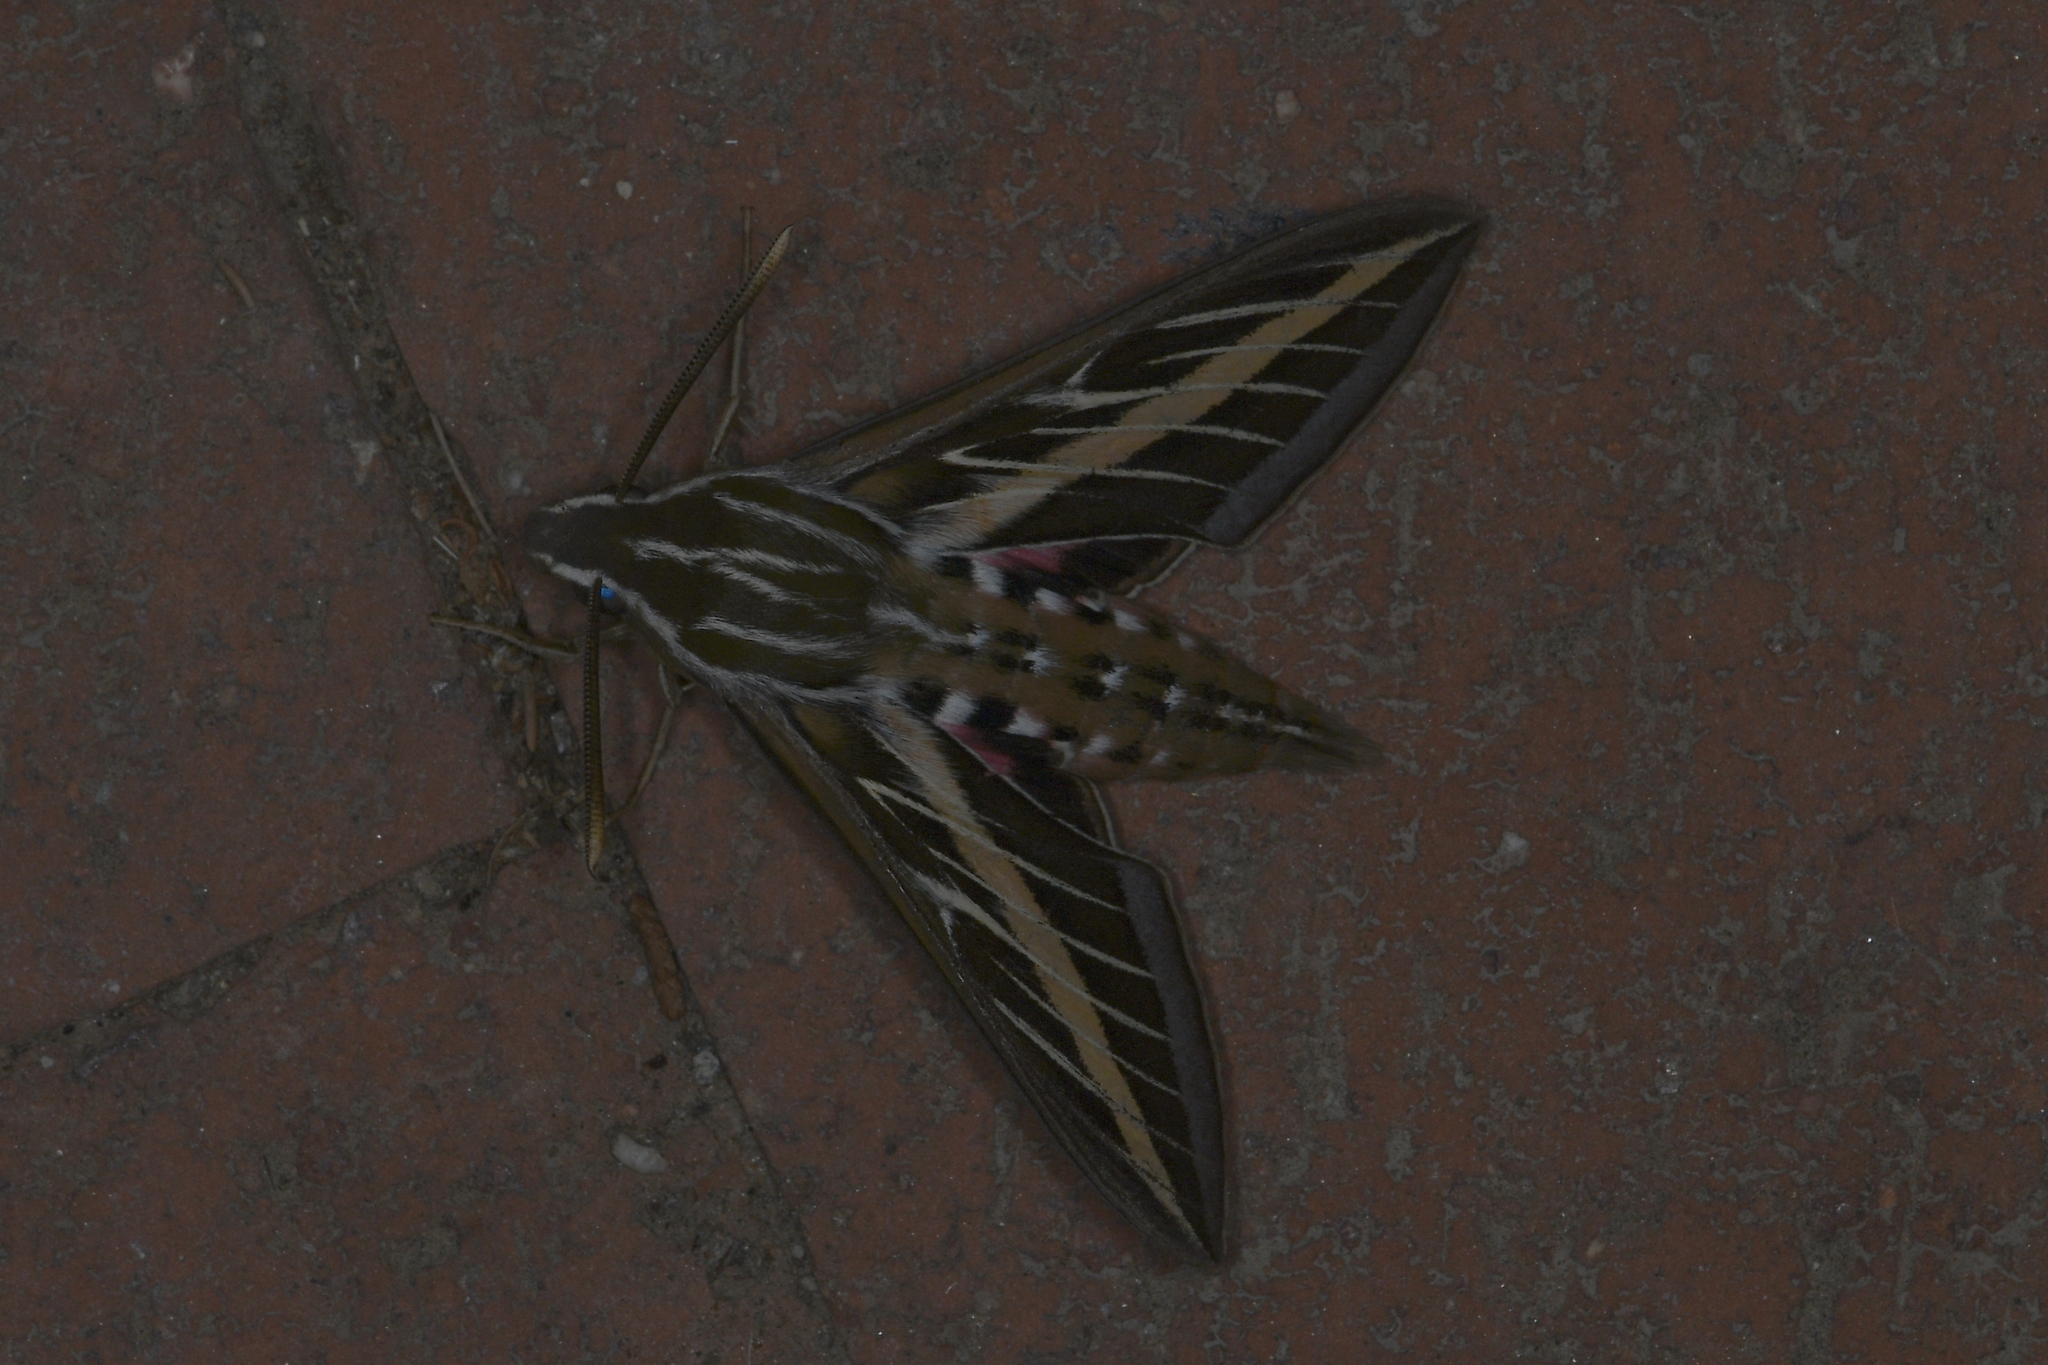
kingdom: Animalia
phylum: Arthropoda
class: Insecta
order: Lepidoptera
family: Sphingidae
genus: Hyles
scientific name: Hyles lineata
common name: White-lined sphinx
